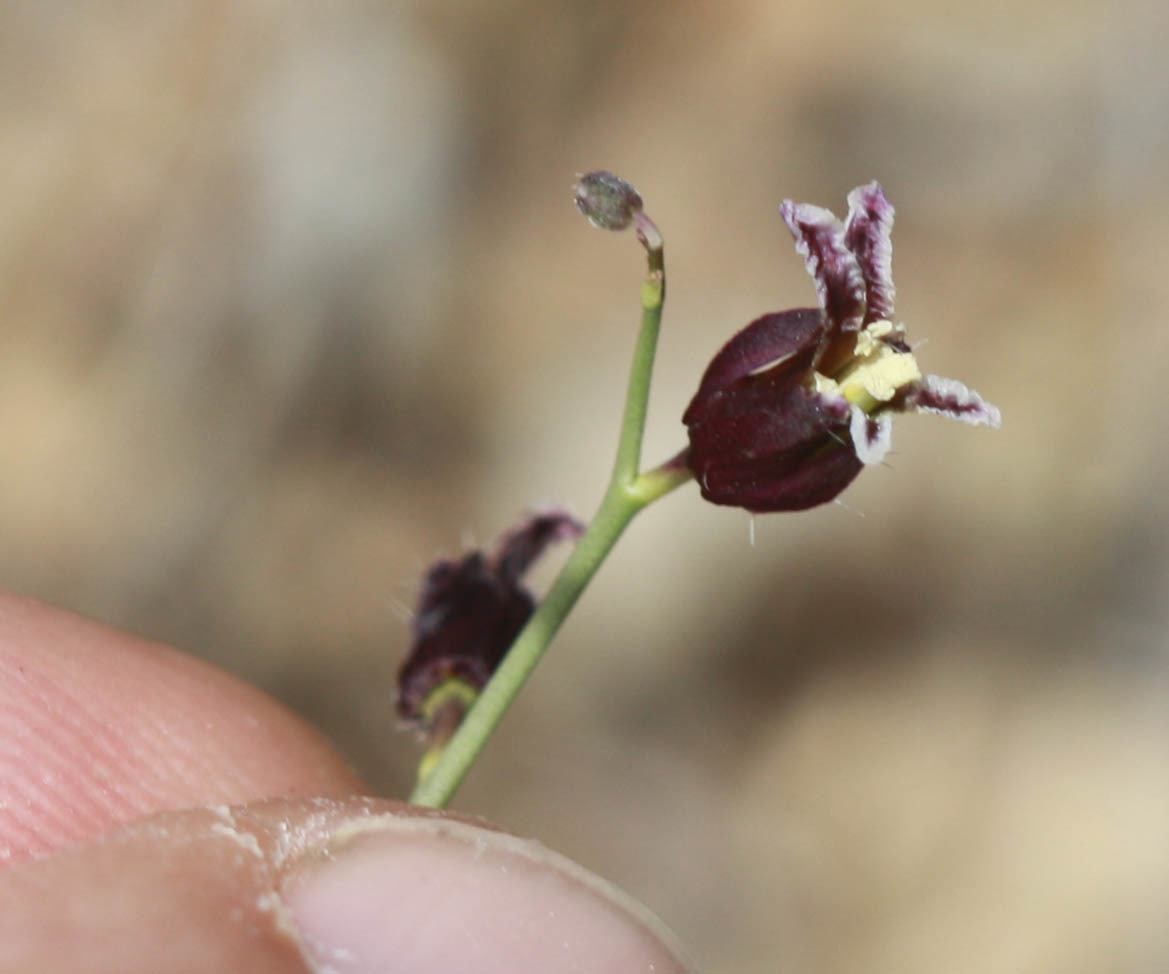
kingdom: Plantae
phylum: Tracheophyta
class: Magnoliopsida
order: Brassicales
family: Brassicaceae
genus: Streptanthus
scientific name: Streptanthus glandulosus
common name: Jewel-flower
